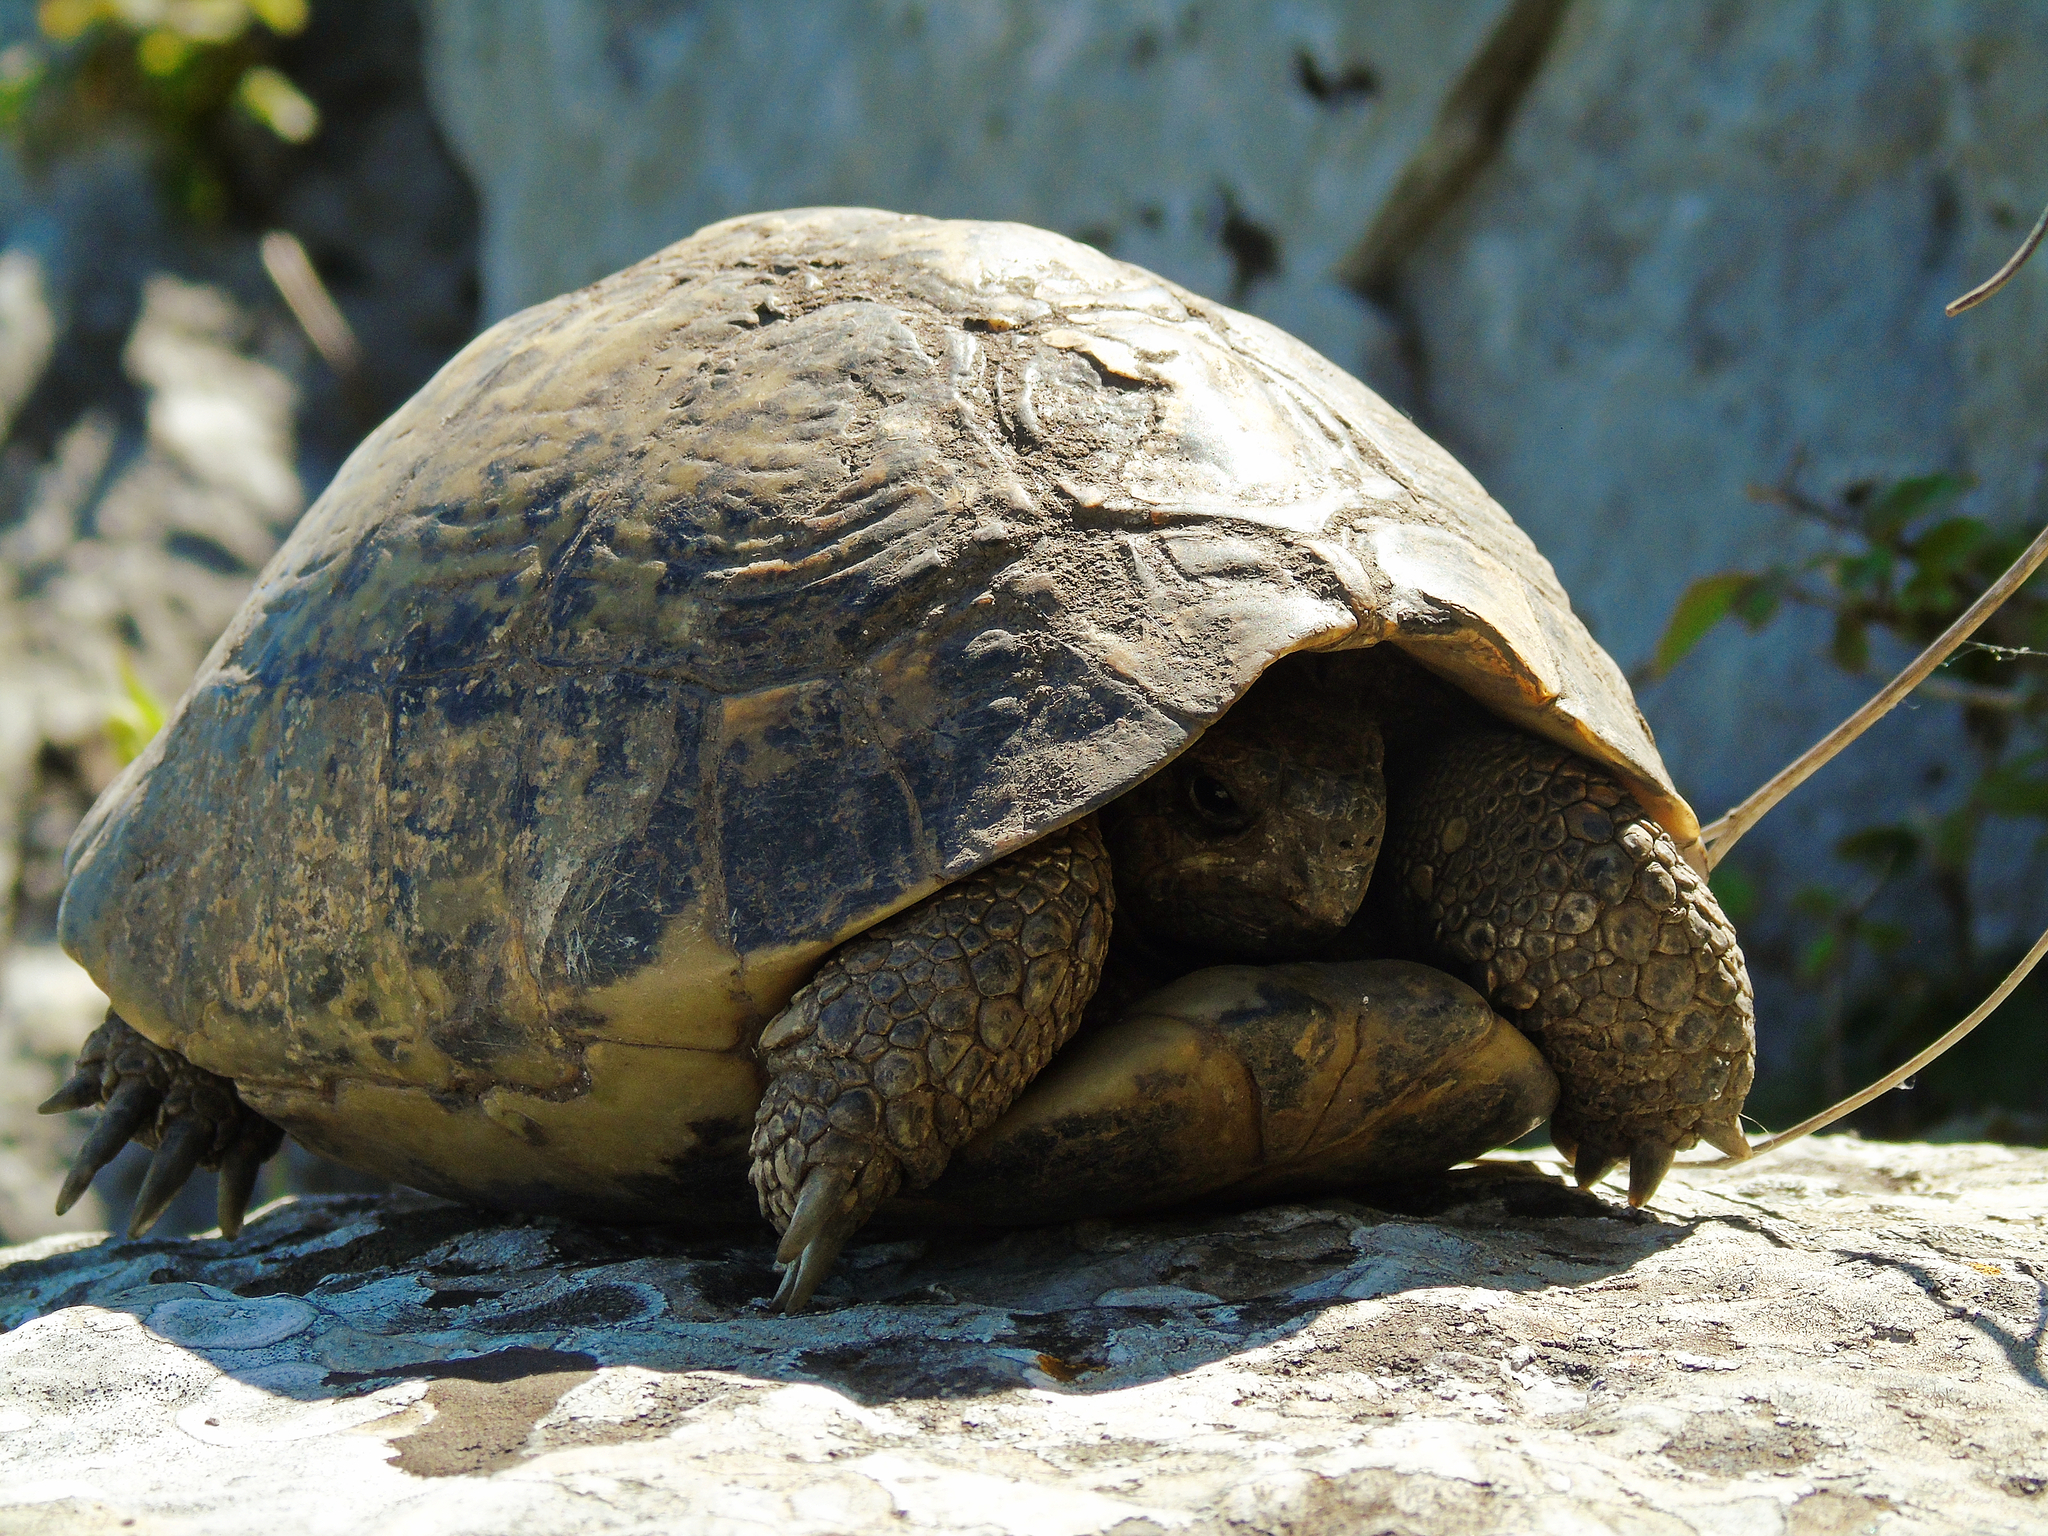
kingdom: Animalia
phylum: Chordata
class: Testudines
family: Testudinidae
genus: Testudo
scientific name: Testudo hermanni
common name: Hermann's tortoise
